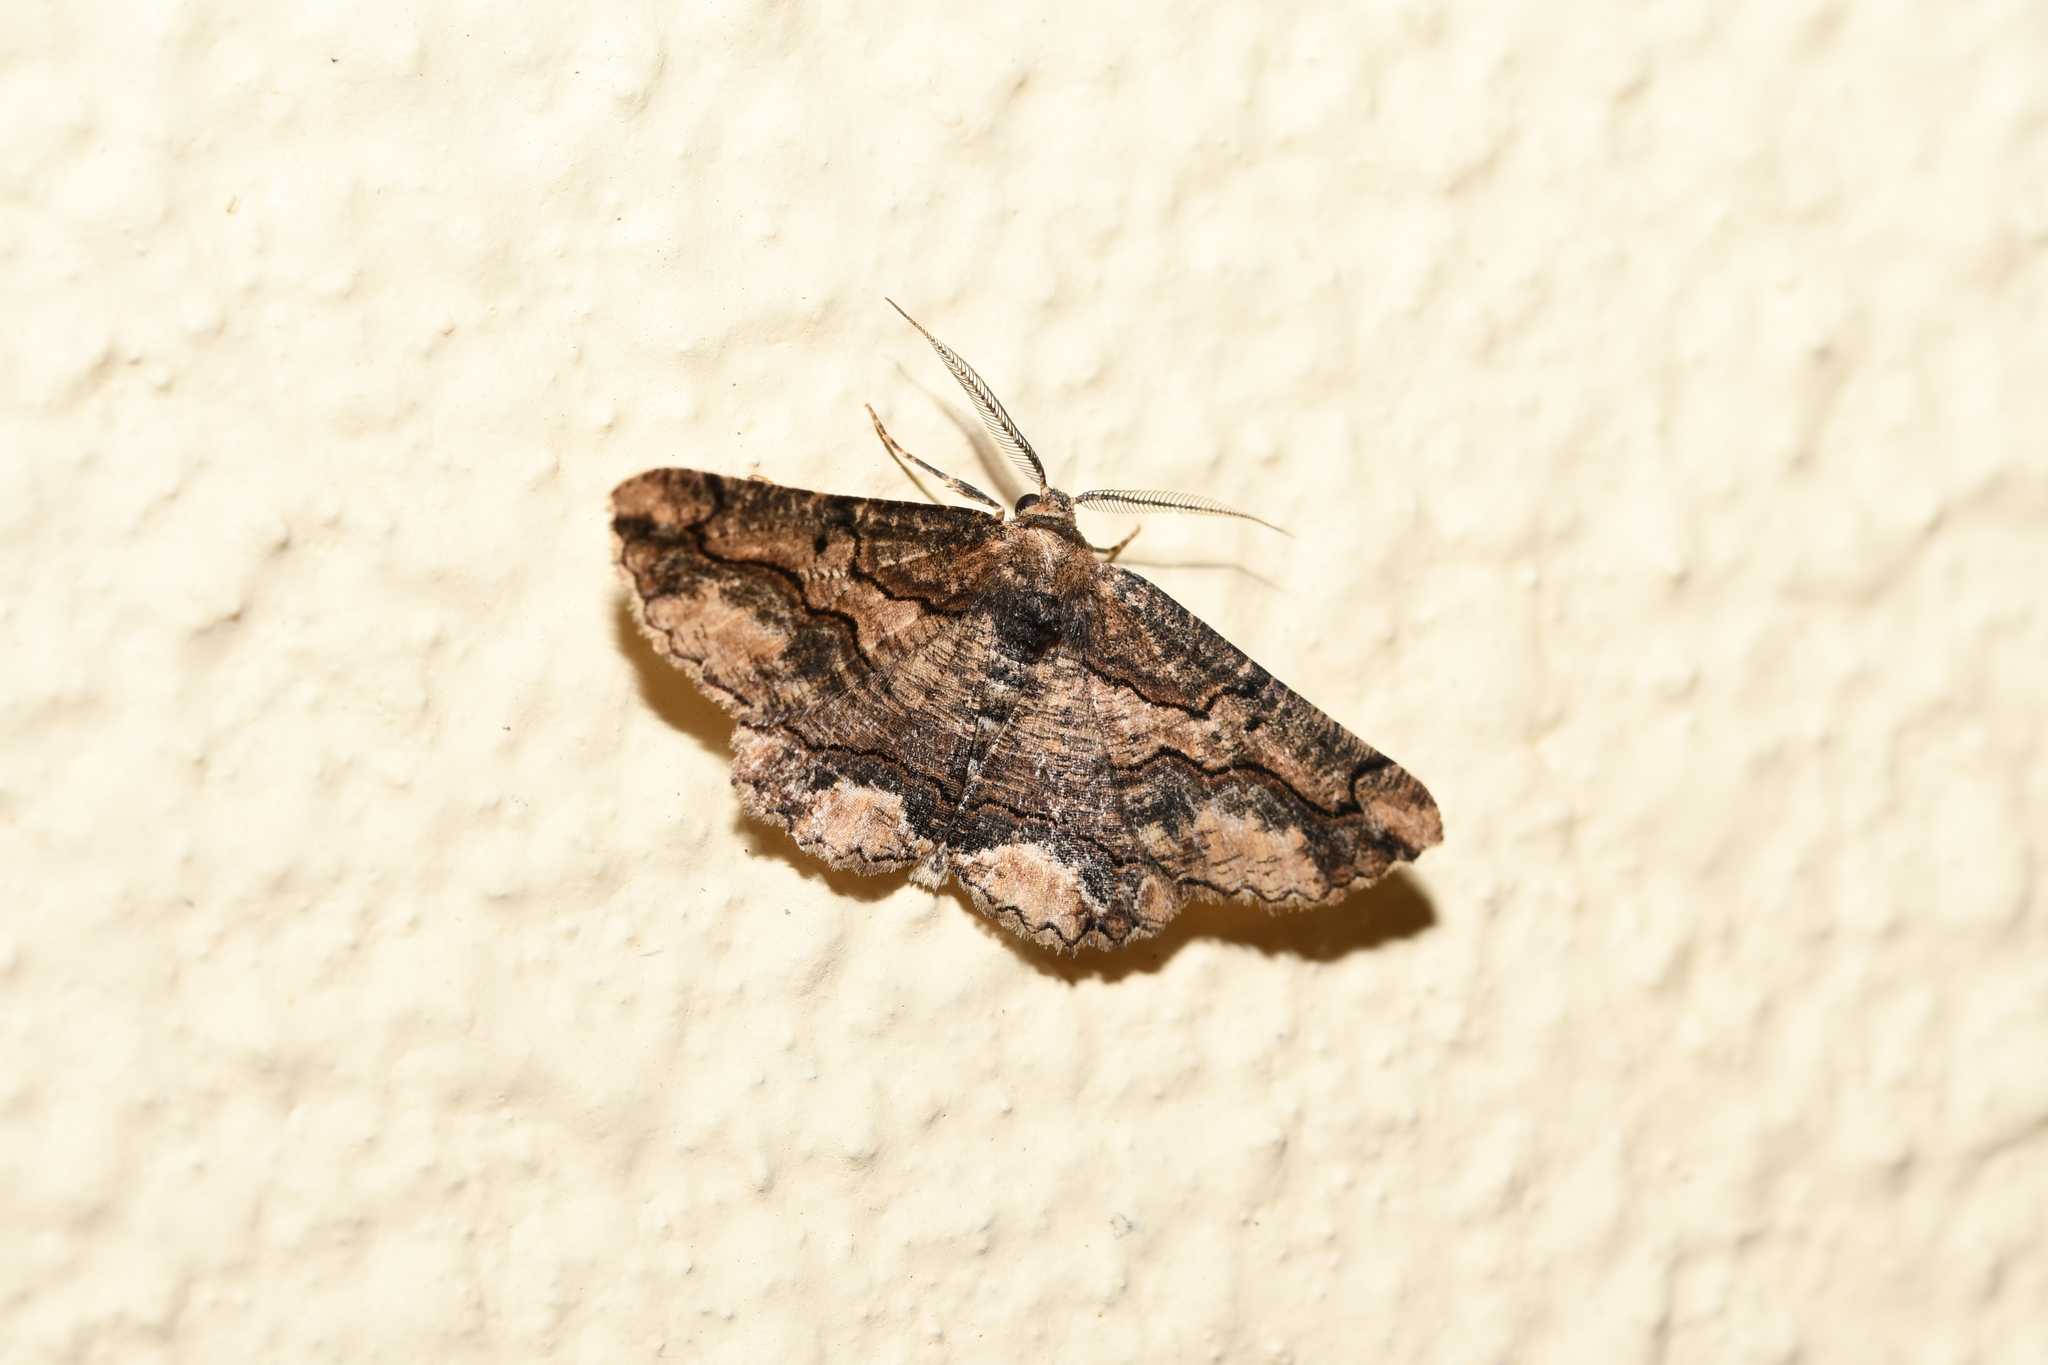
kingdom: Animalia
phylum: Arthropoda
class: Insecta
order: Lepidoptera
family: Geometridae
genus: Menophra
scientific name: Menophra japygiaria
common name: Brassy waved umber
